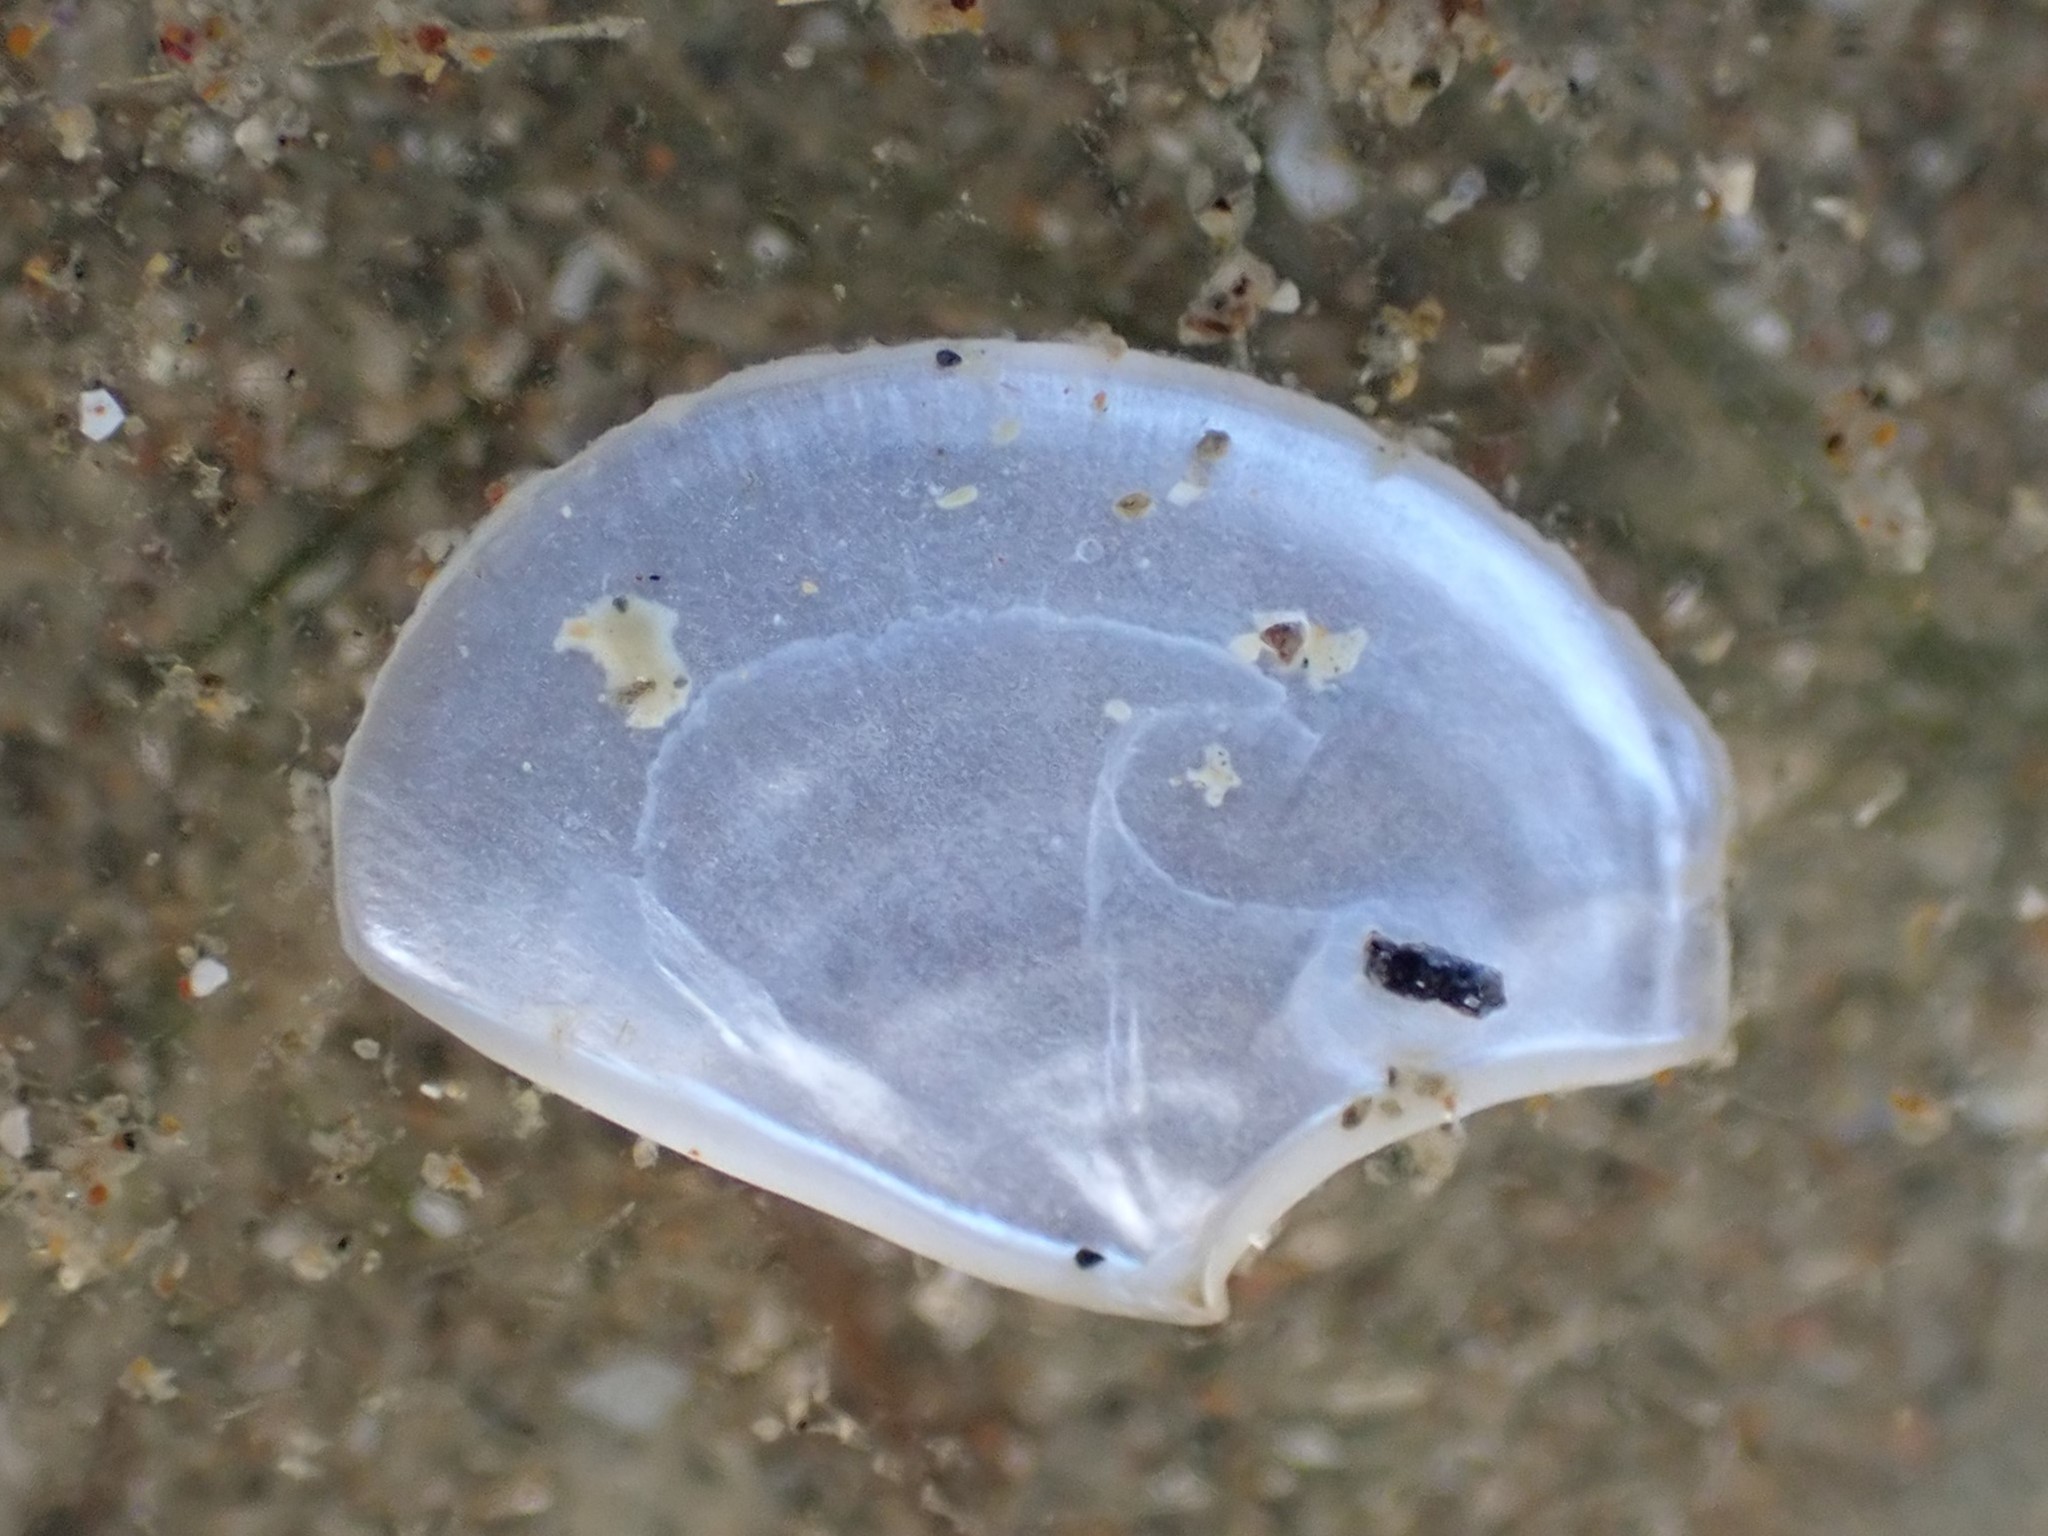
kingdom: Animalia
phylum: Mollusca
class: Bivalvia
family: Myochamidae
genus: Myadora
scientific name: Myadora boltoni
